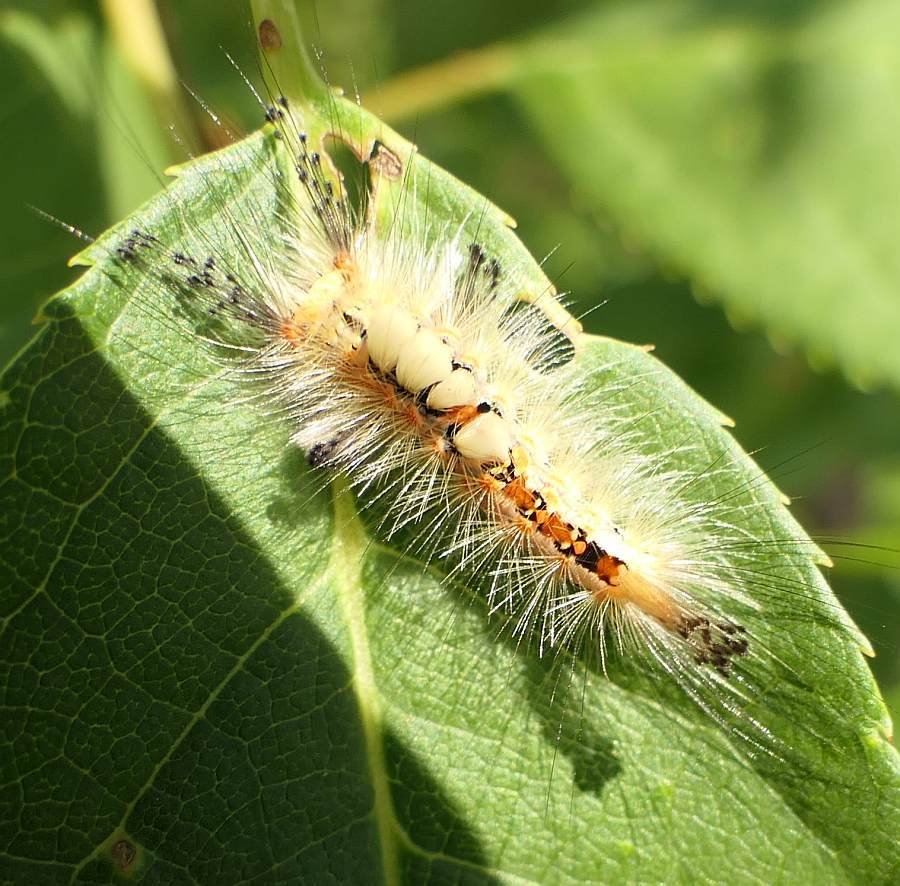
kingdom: Animalia
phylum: Arthropoda
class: Insecta
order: Lepidoptera
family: Erebidae
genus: Orgyia
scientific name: Orgyia antiqua
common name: Vapourer
